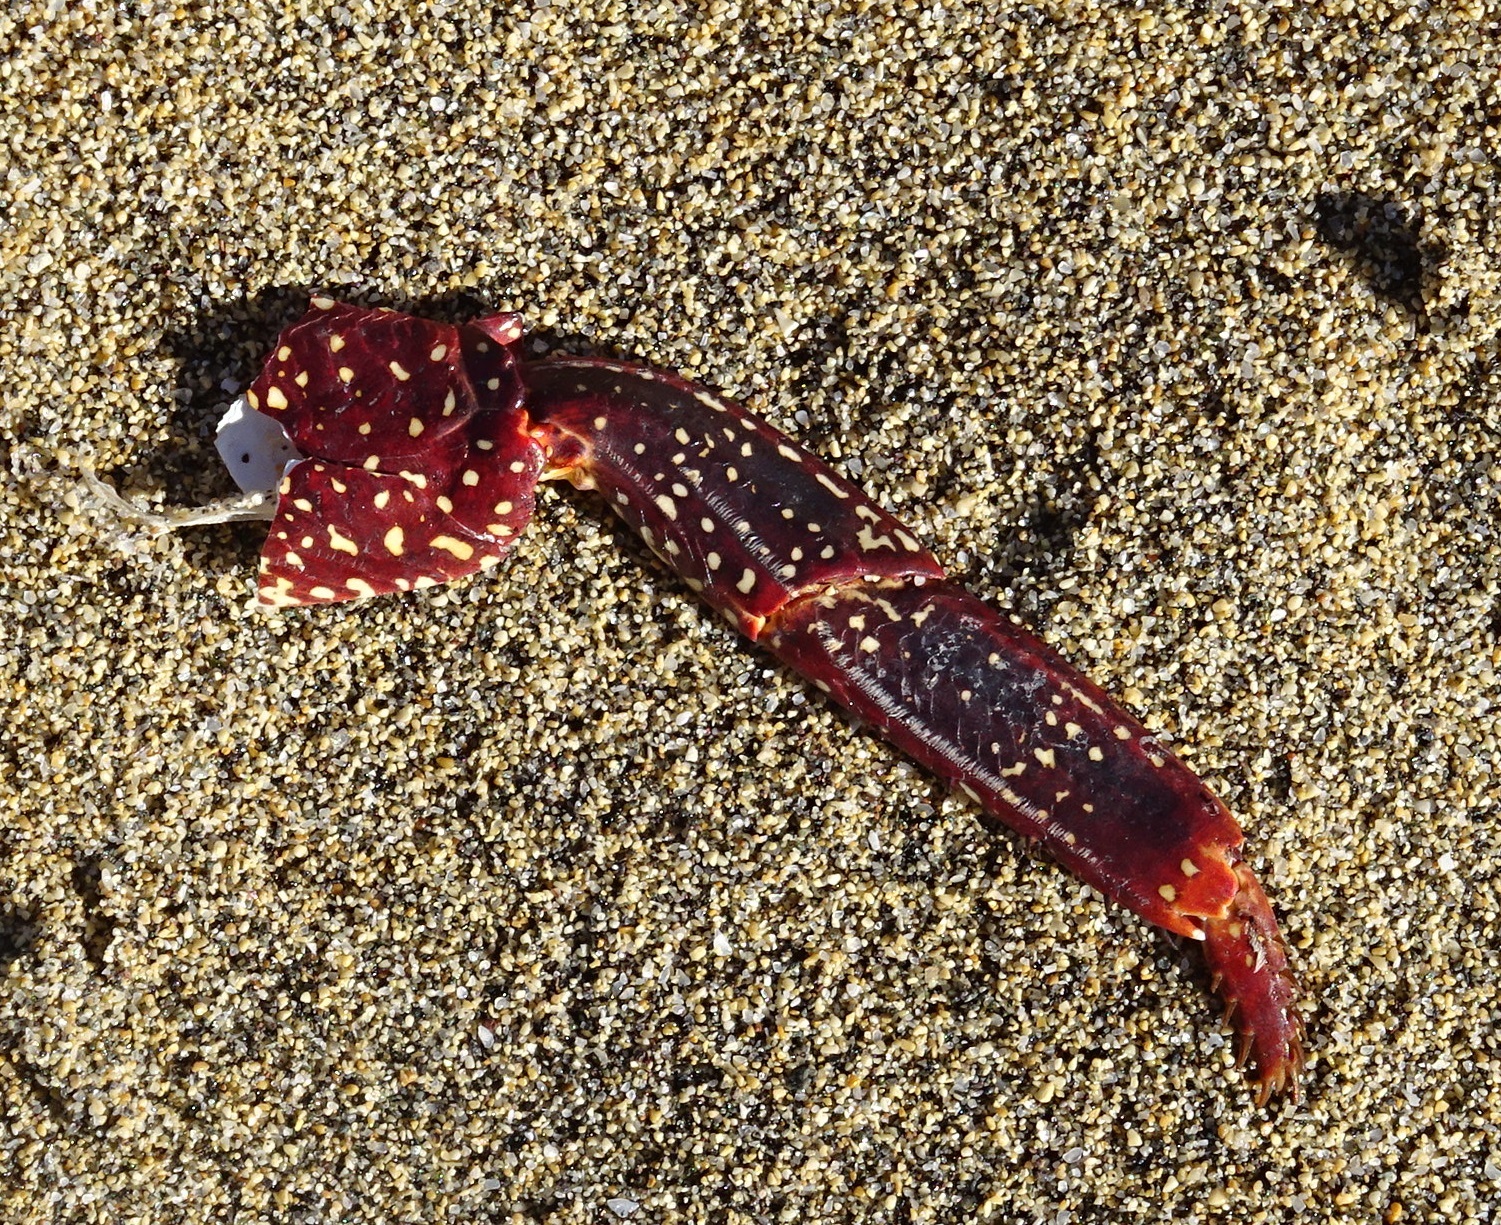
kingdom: Animalia
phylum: Arthropoda
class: Malacostraca
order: Decapoda
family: Grapsidae
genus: Grapsus
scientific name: Grapsus adscensionis
